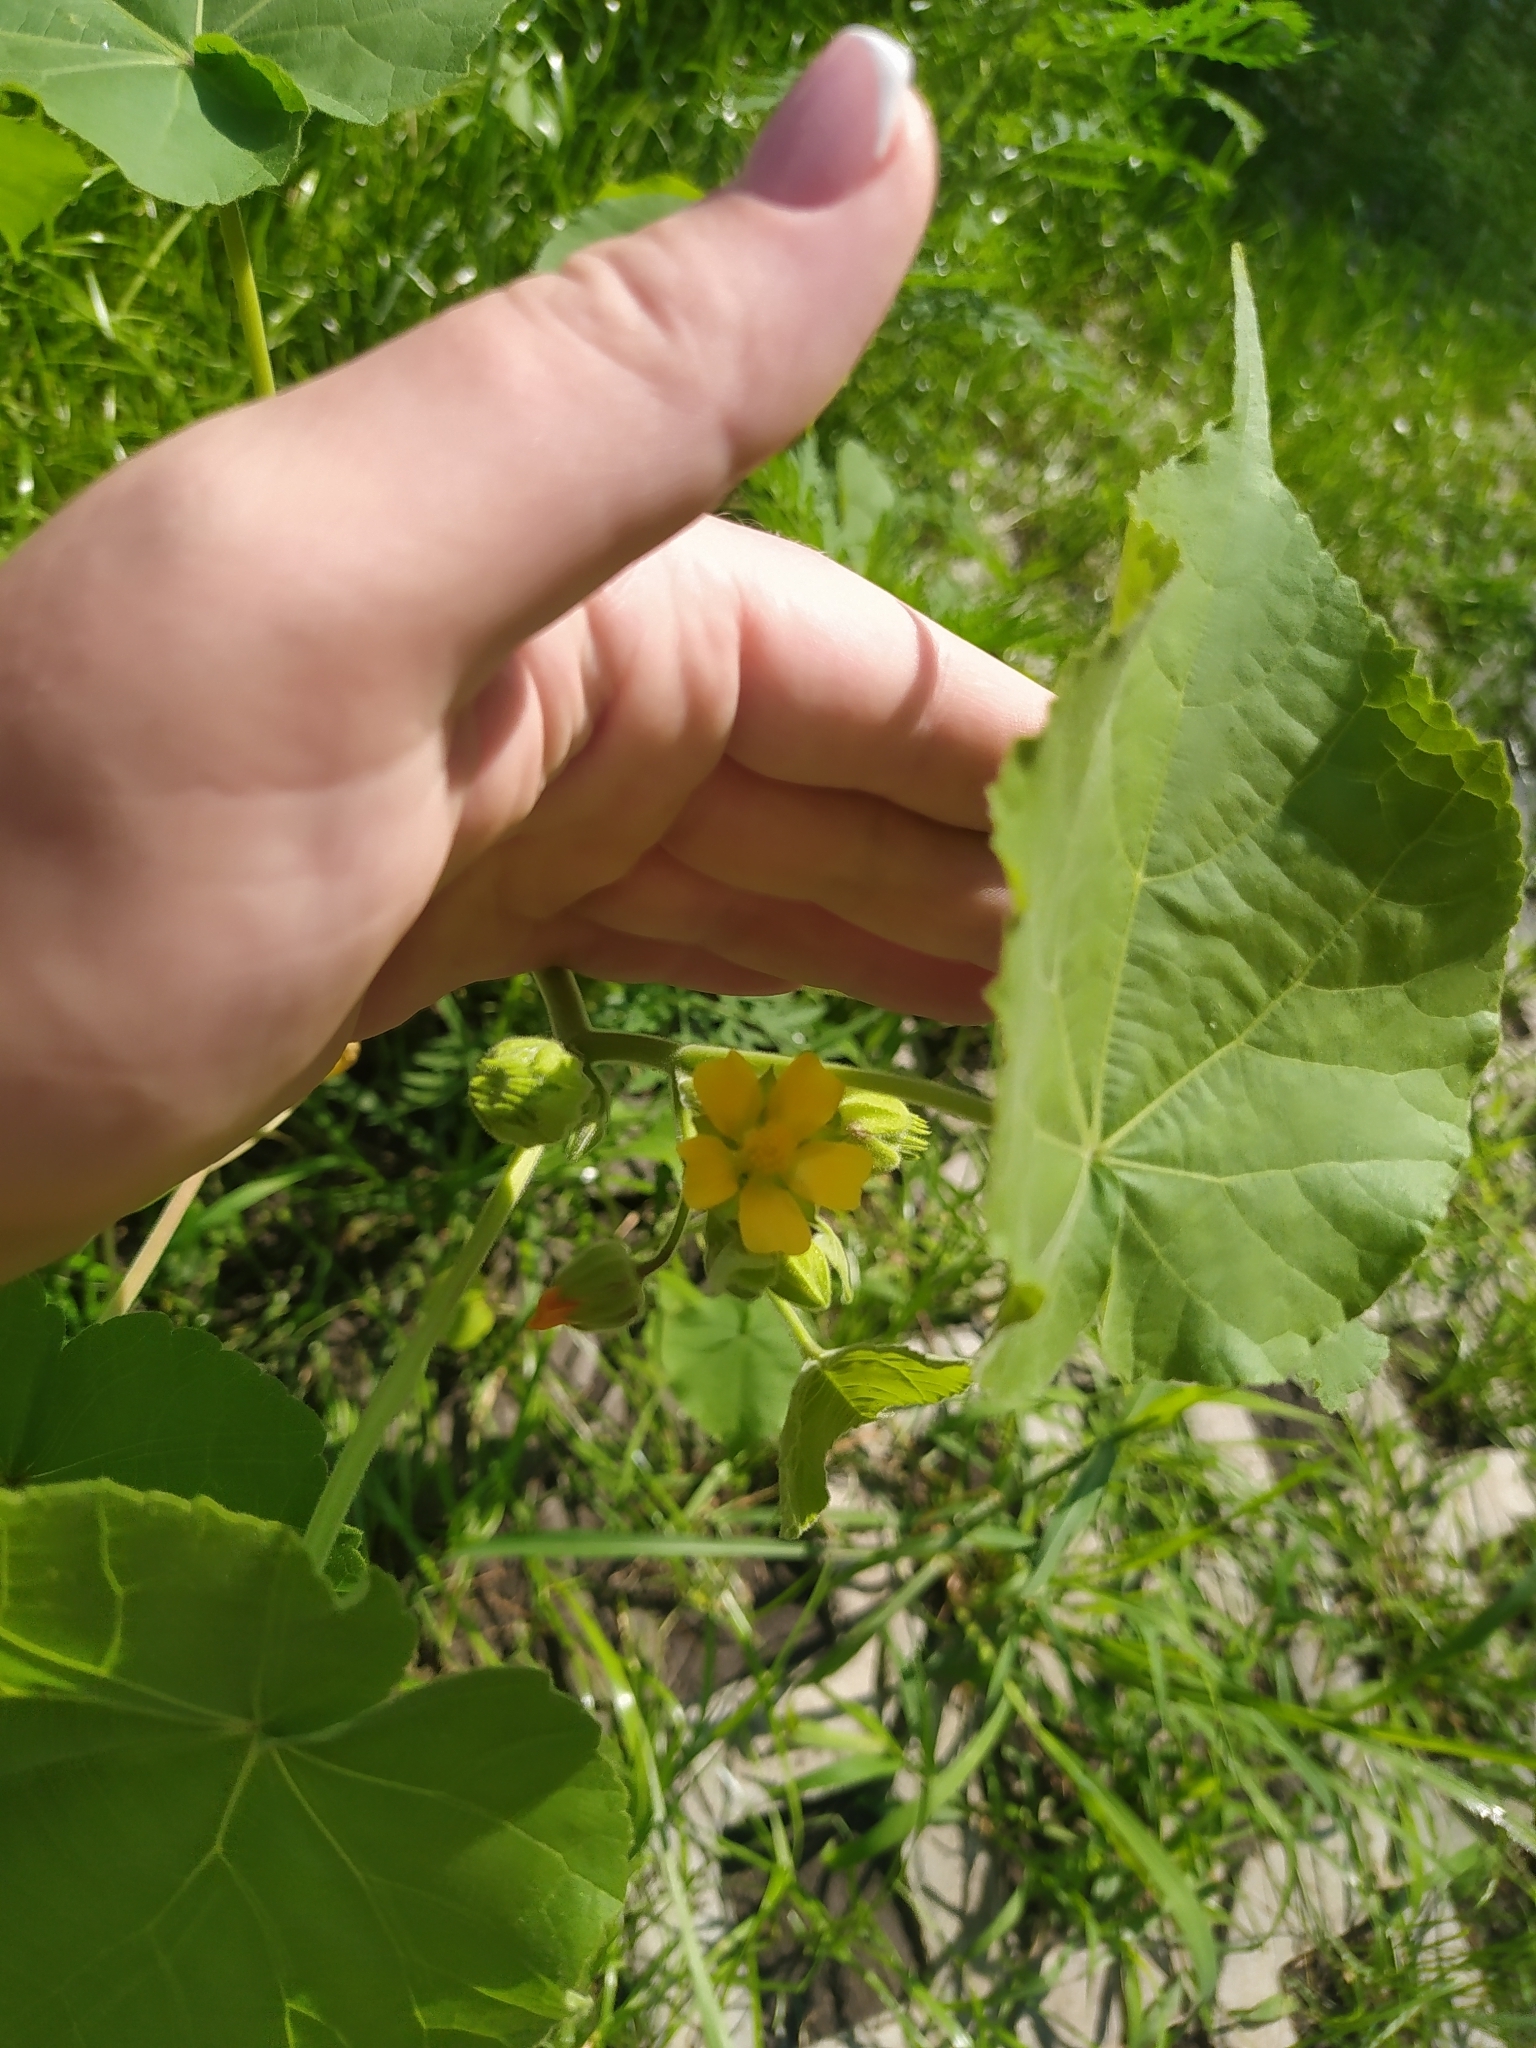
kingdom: Plantae
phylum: Tracheophyta
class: Magnoliopsida
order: Malvales
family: Malvaceae
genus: Abutilon
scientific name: Abutilon theophrasti
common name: Velvetleaf
